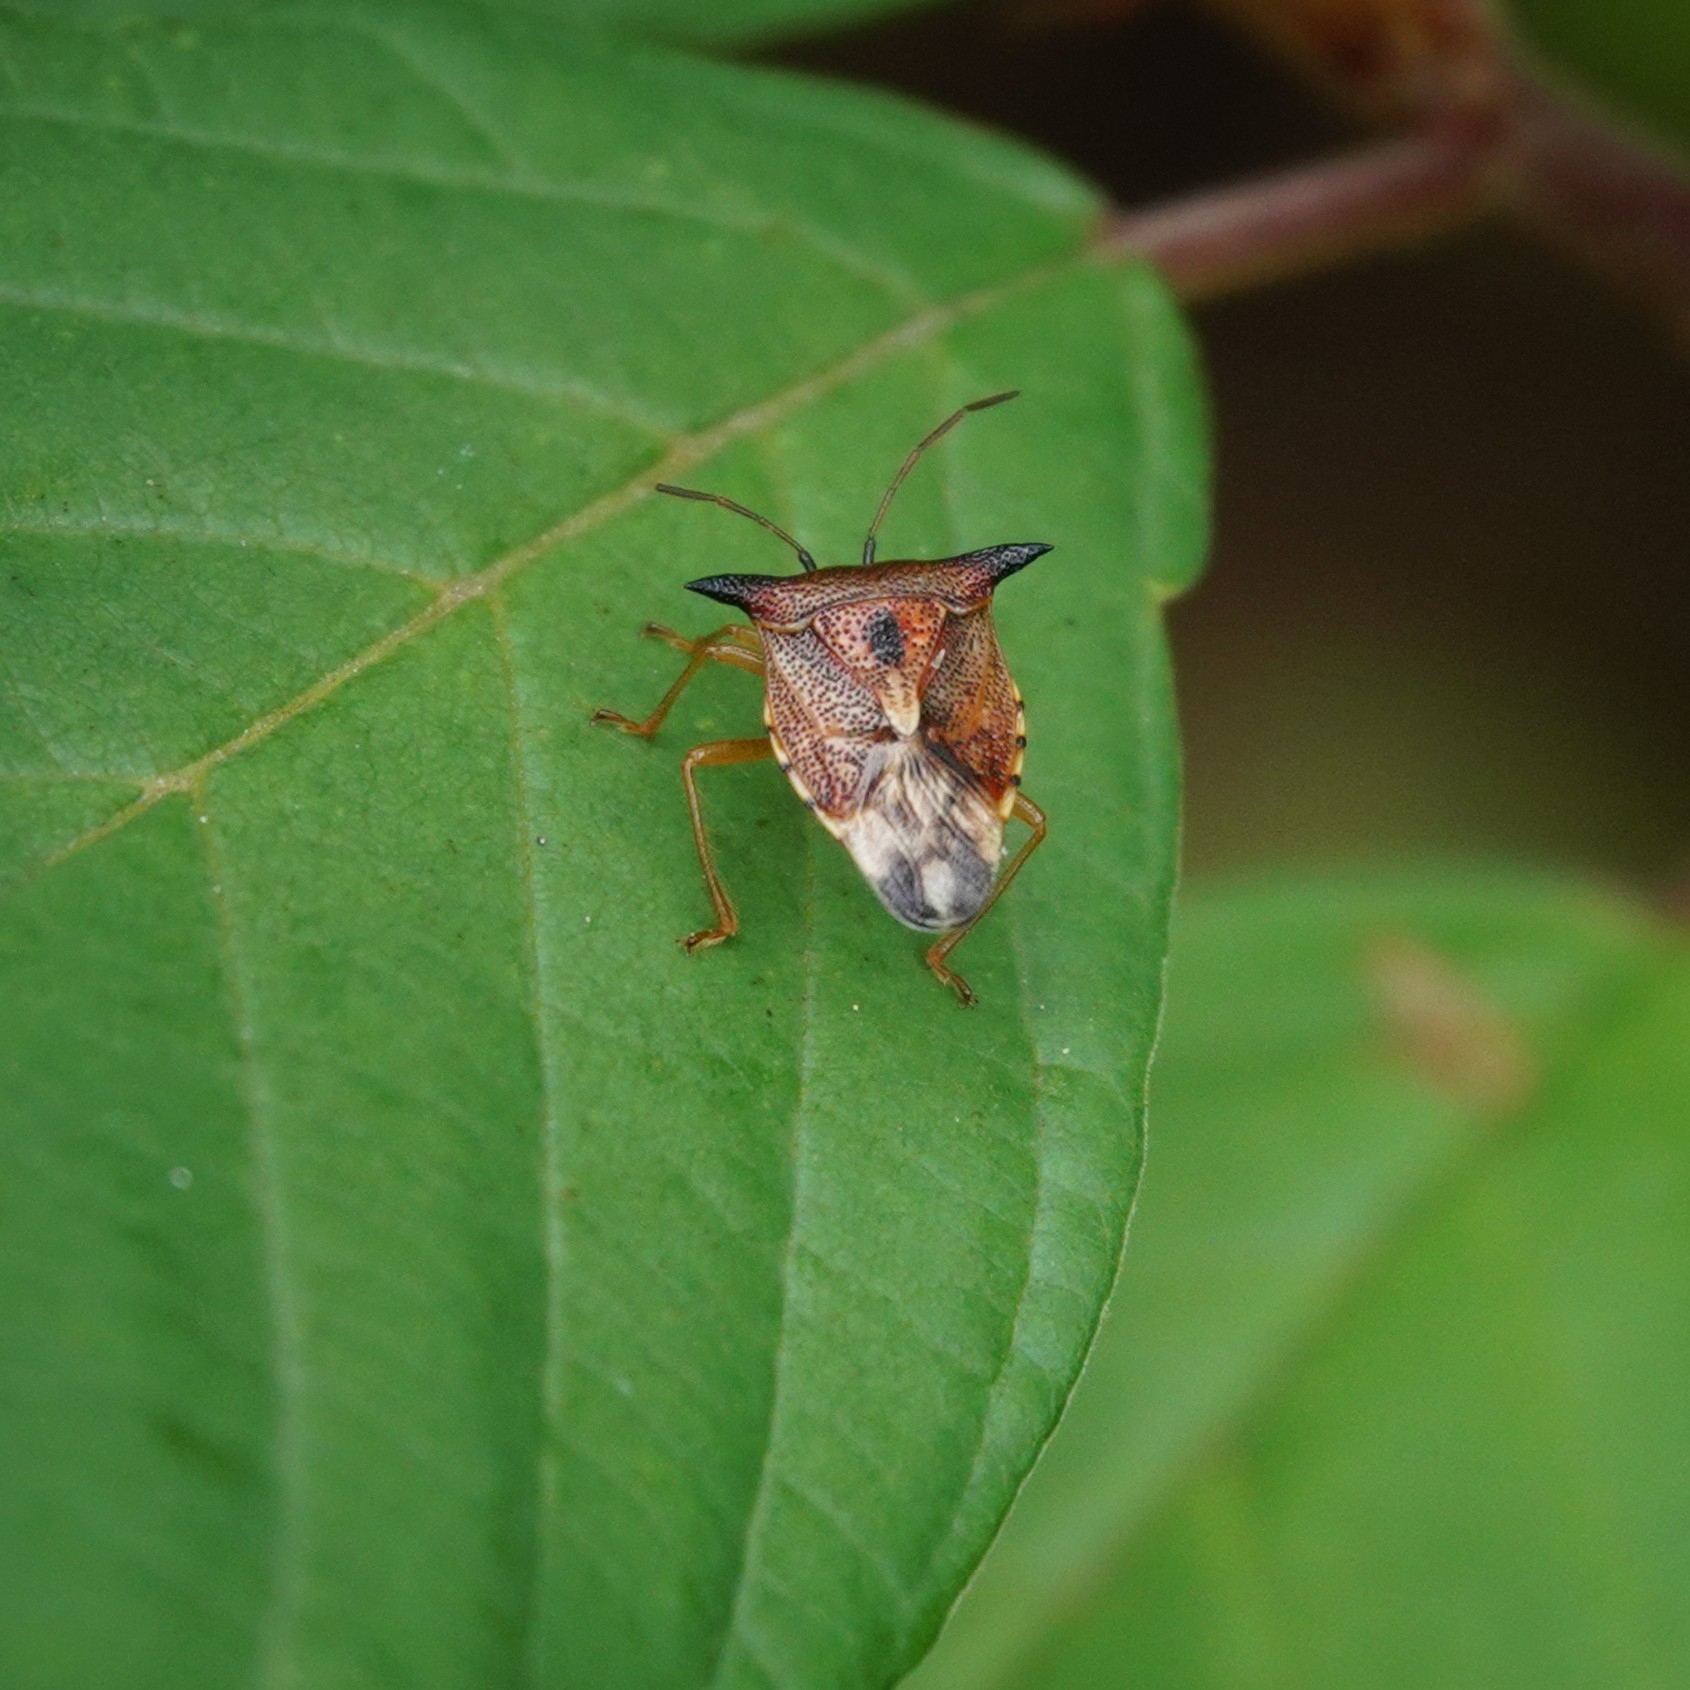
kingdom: Animalia
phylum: Arthropoda
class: Insecta
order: Hemiptera
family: Acanthosomatidae
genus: Elasmucha
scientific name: Elasmucha ferrugata
